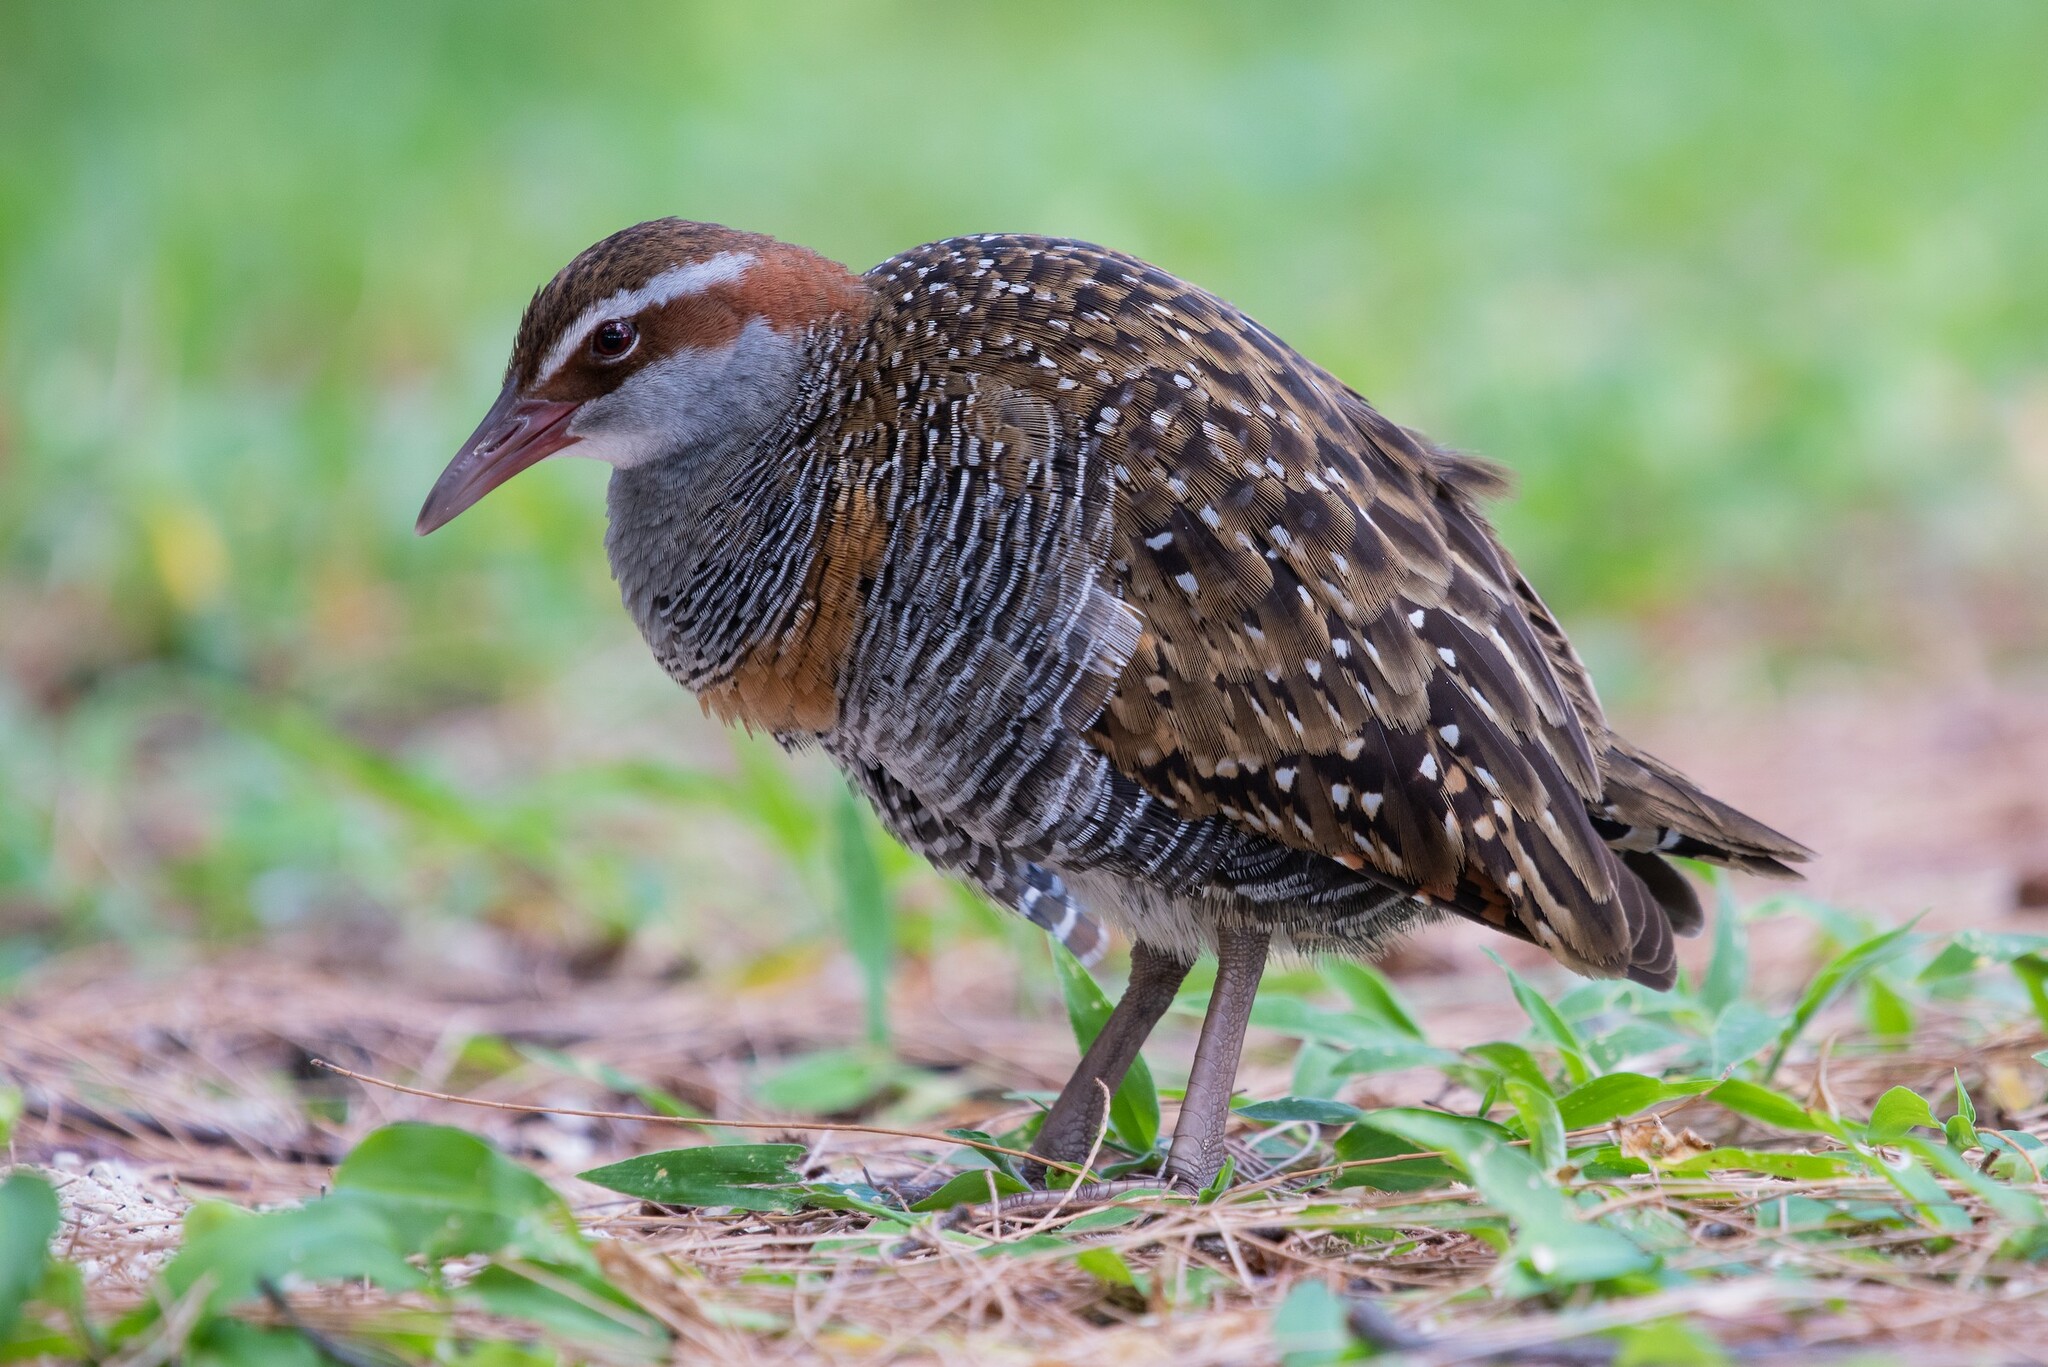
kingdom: Animalia
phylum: Chordata
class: Aves
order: Gruiformes
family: Rallidae
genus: Gallirallus
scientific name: Gallirallus philippensis
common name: Buff-banded rail
